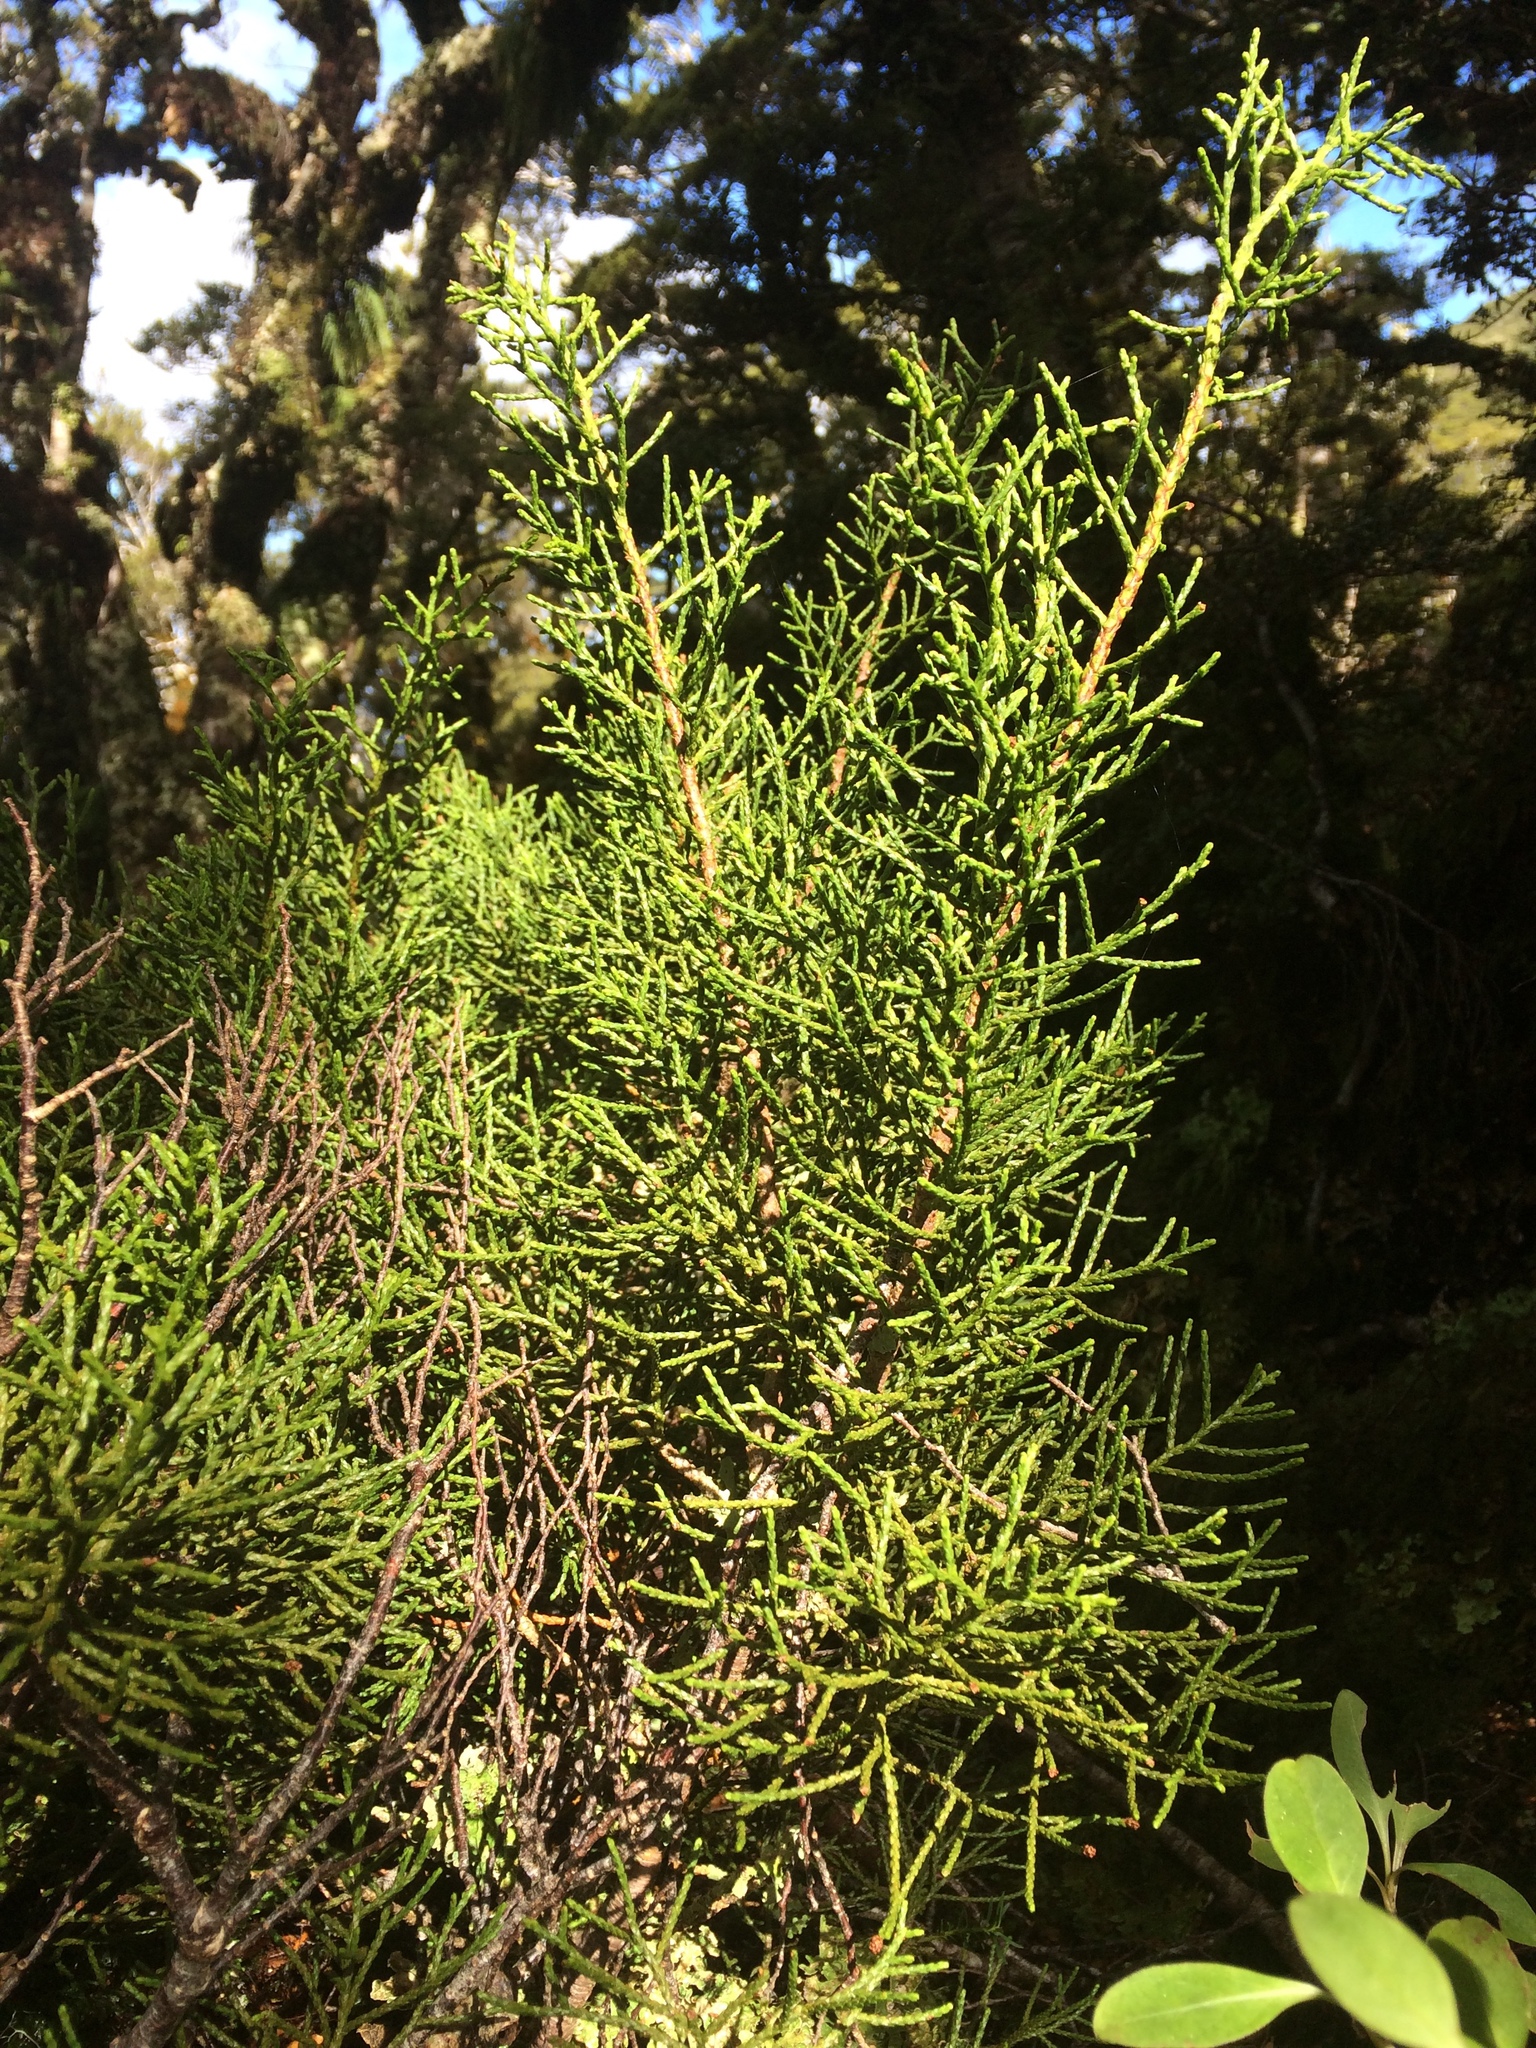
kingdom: Plantae
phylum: Tracheophyta
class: Pinopsida
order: Pinales
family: Podocarpaceae
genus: Halocarpus
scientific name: Halocarpus bidwillii
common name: Bog pine
